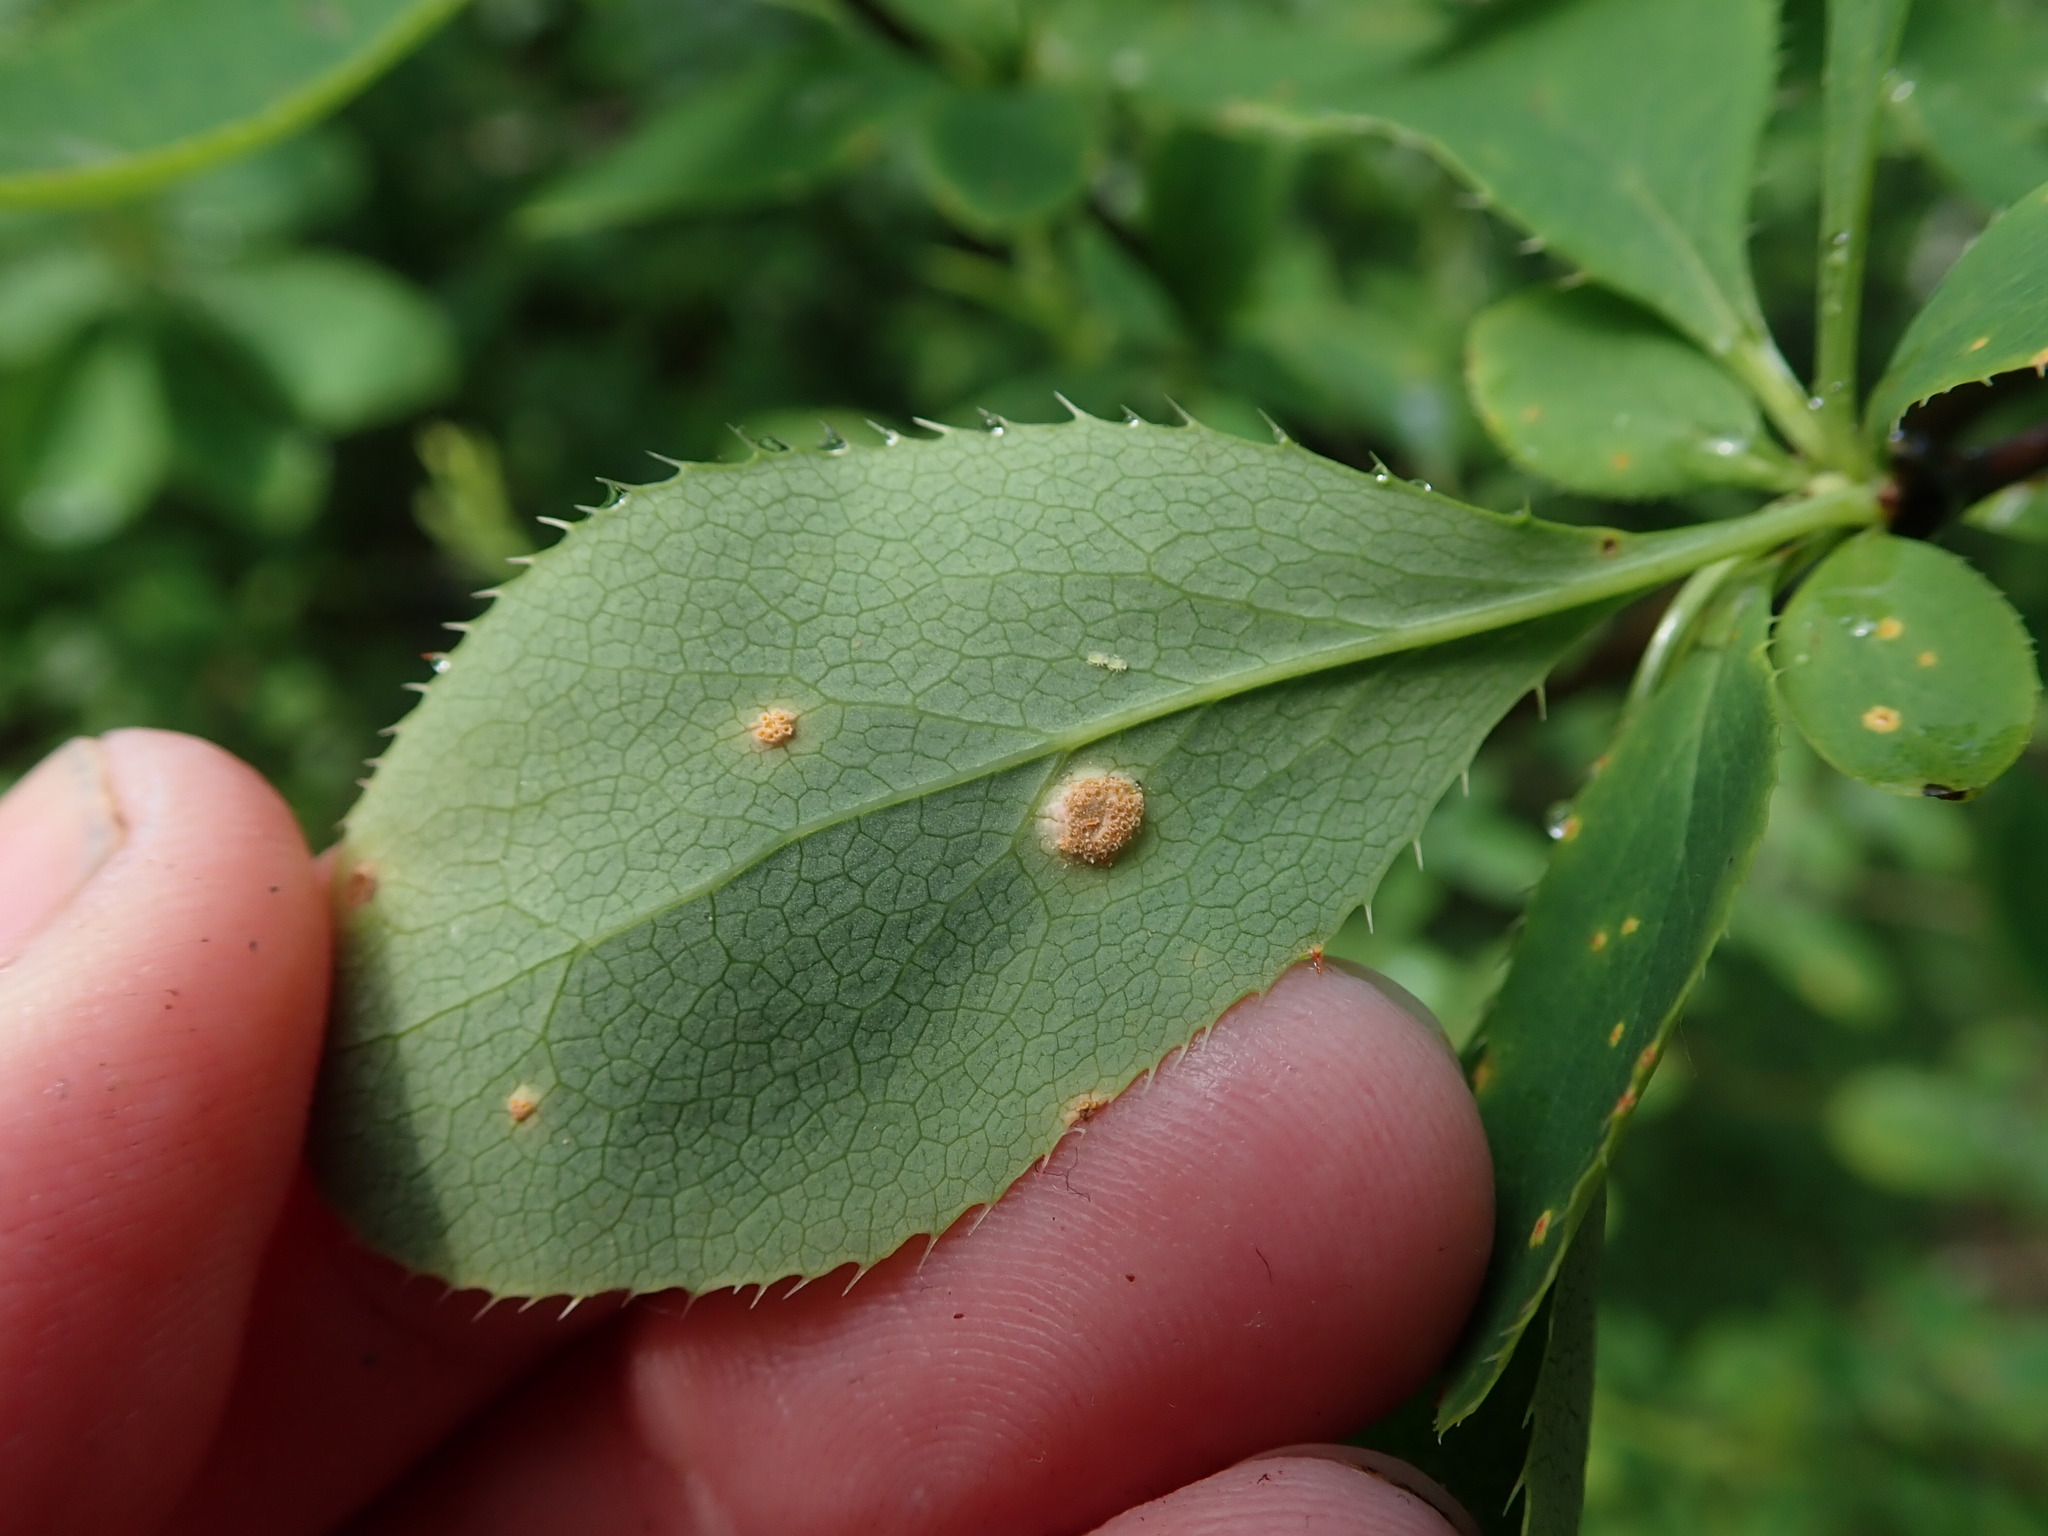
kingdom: Fungi
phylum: Basidiomycota
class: Pucciniomycetes
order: Pucciniales
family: Pucciniaceae
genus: Puccinia
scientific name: Puccinia graminis
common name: Black stem rust
